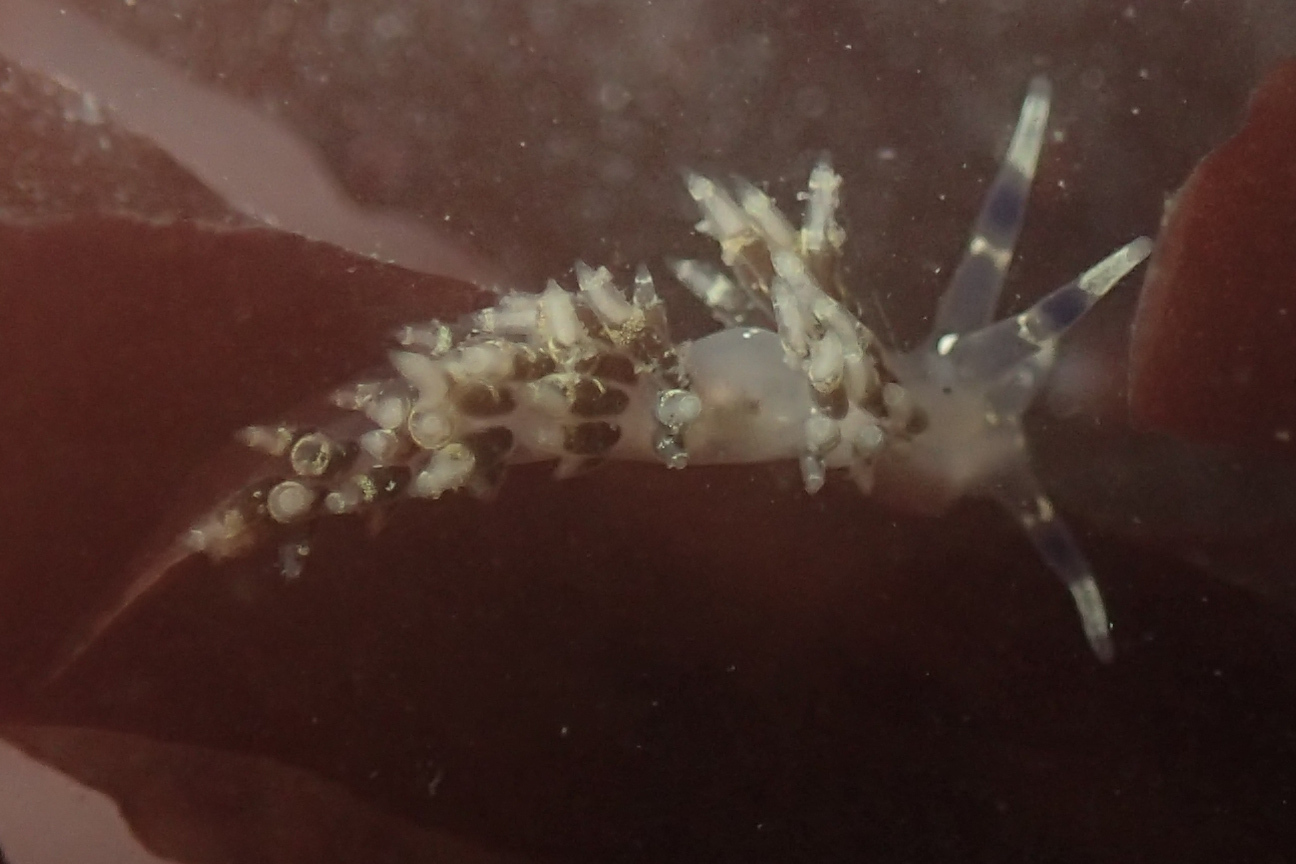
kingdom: Animalia
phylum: Mollusca
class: Gastropoda
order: Nudibranchia
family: Abronicidae
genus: Abronica
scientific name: Abronica abronia
